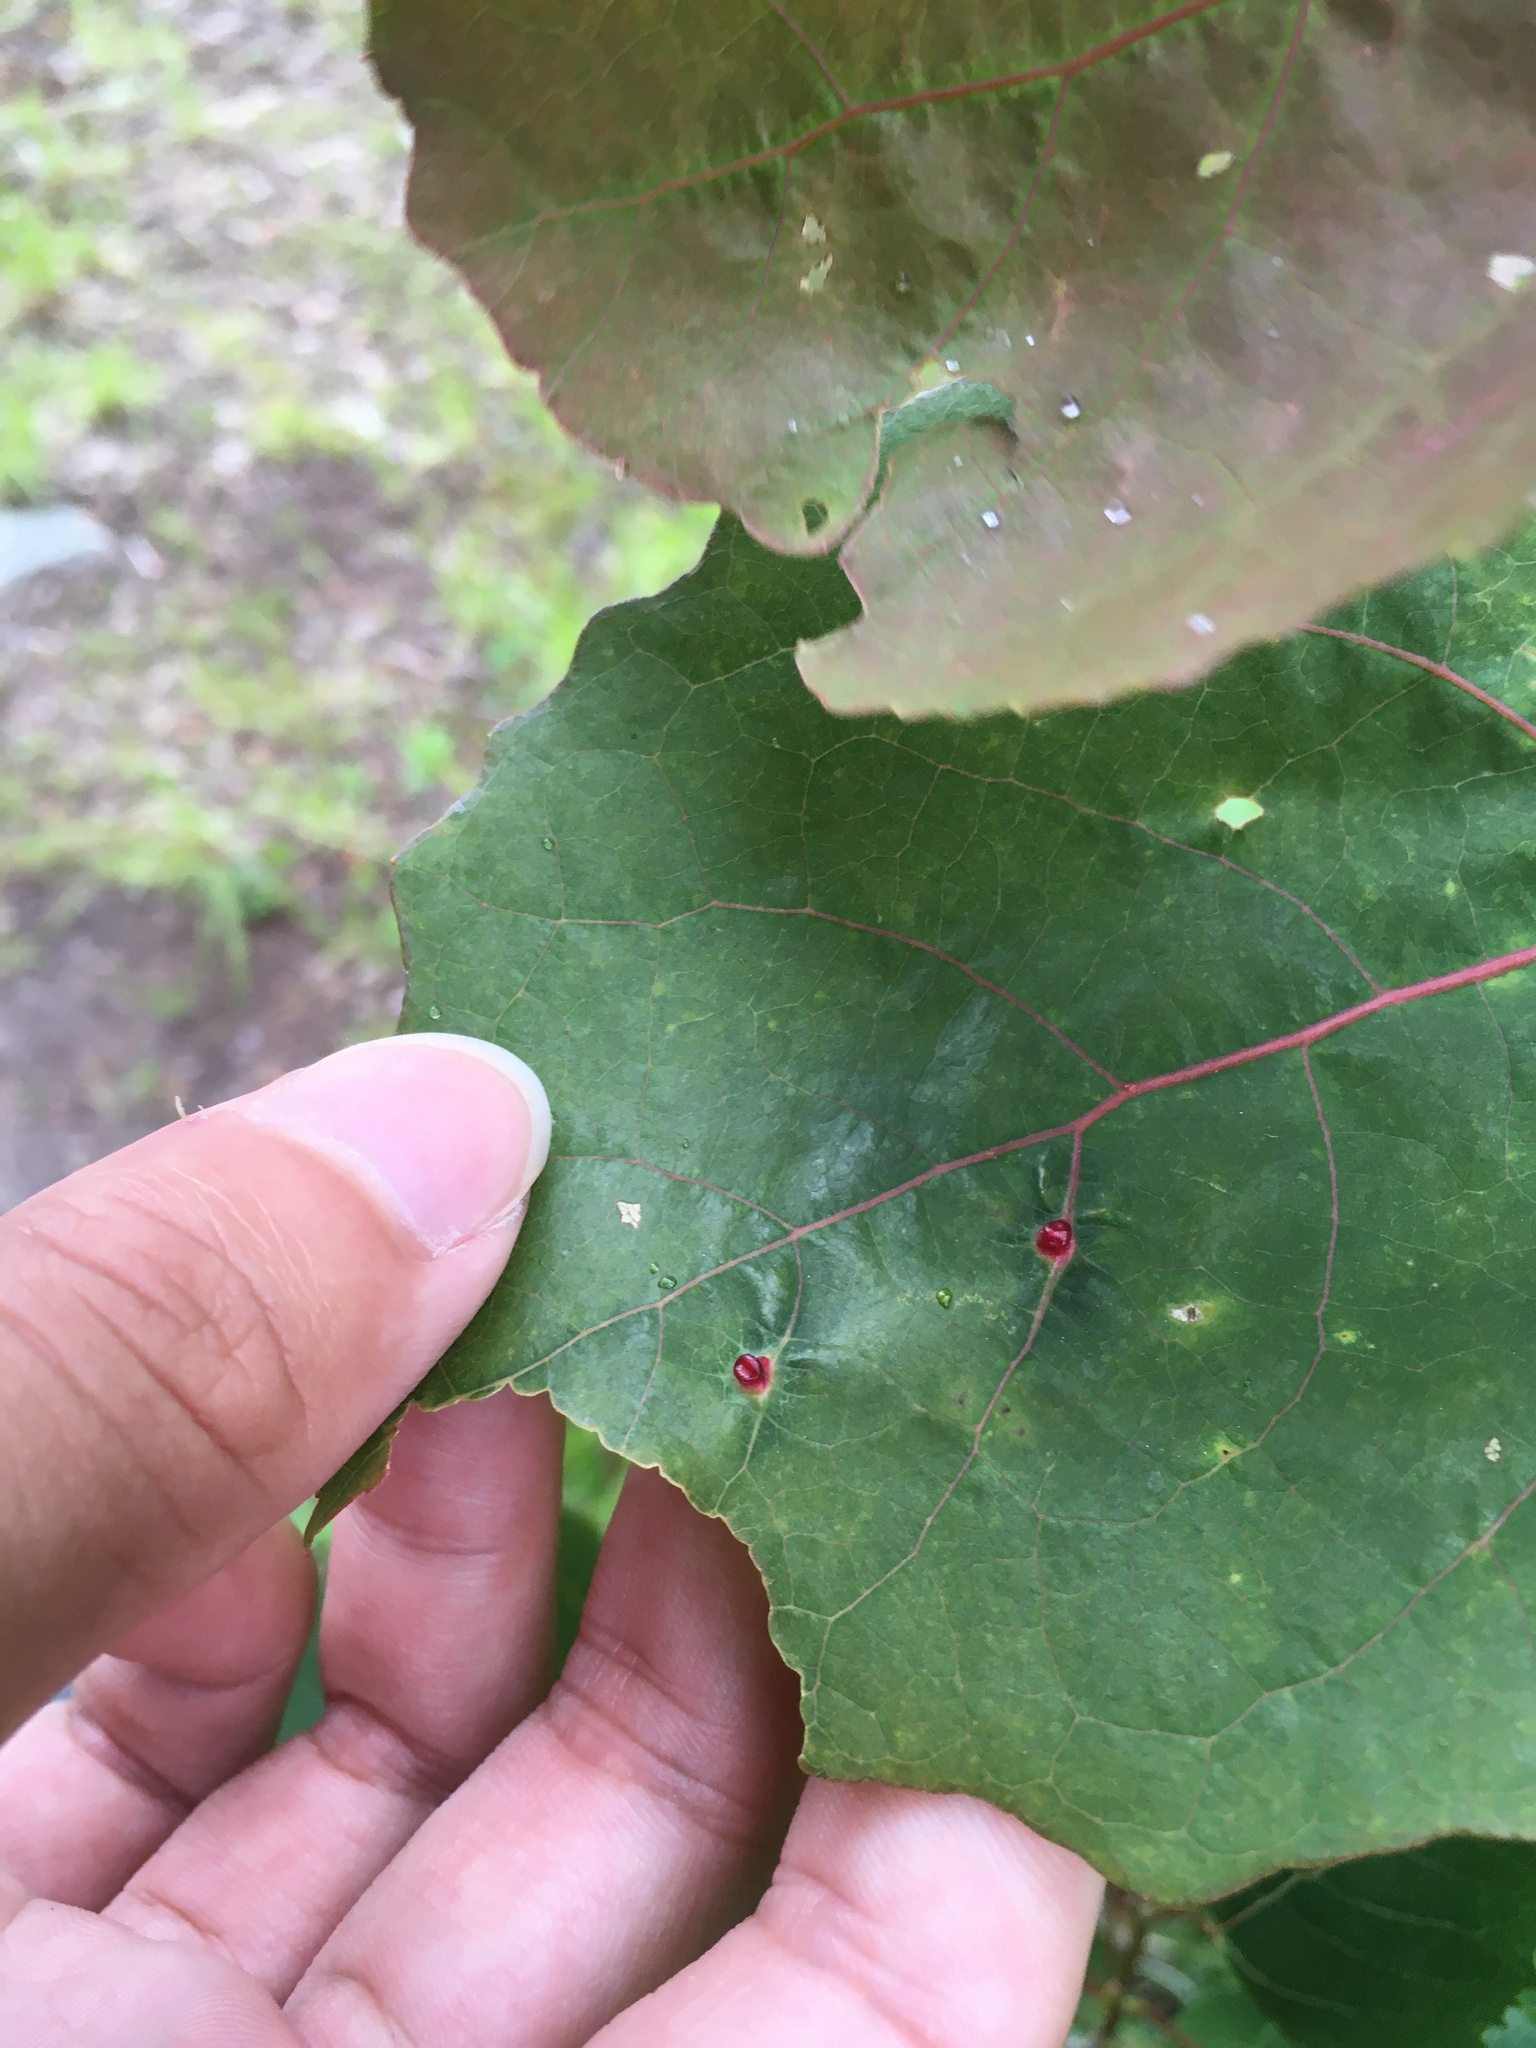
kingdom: Animalia
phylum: Arthropoda
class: Insecta
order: Diptera
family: Cecidomyiidae
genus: Harmandiola
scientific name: Harmandiola helena
